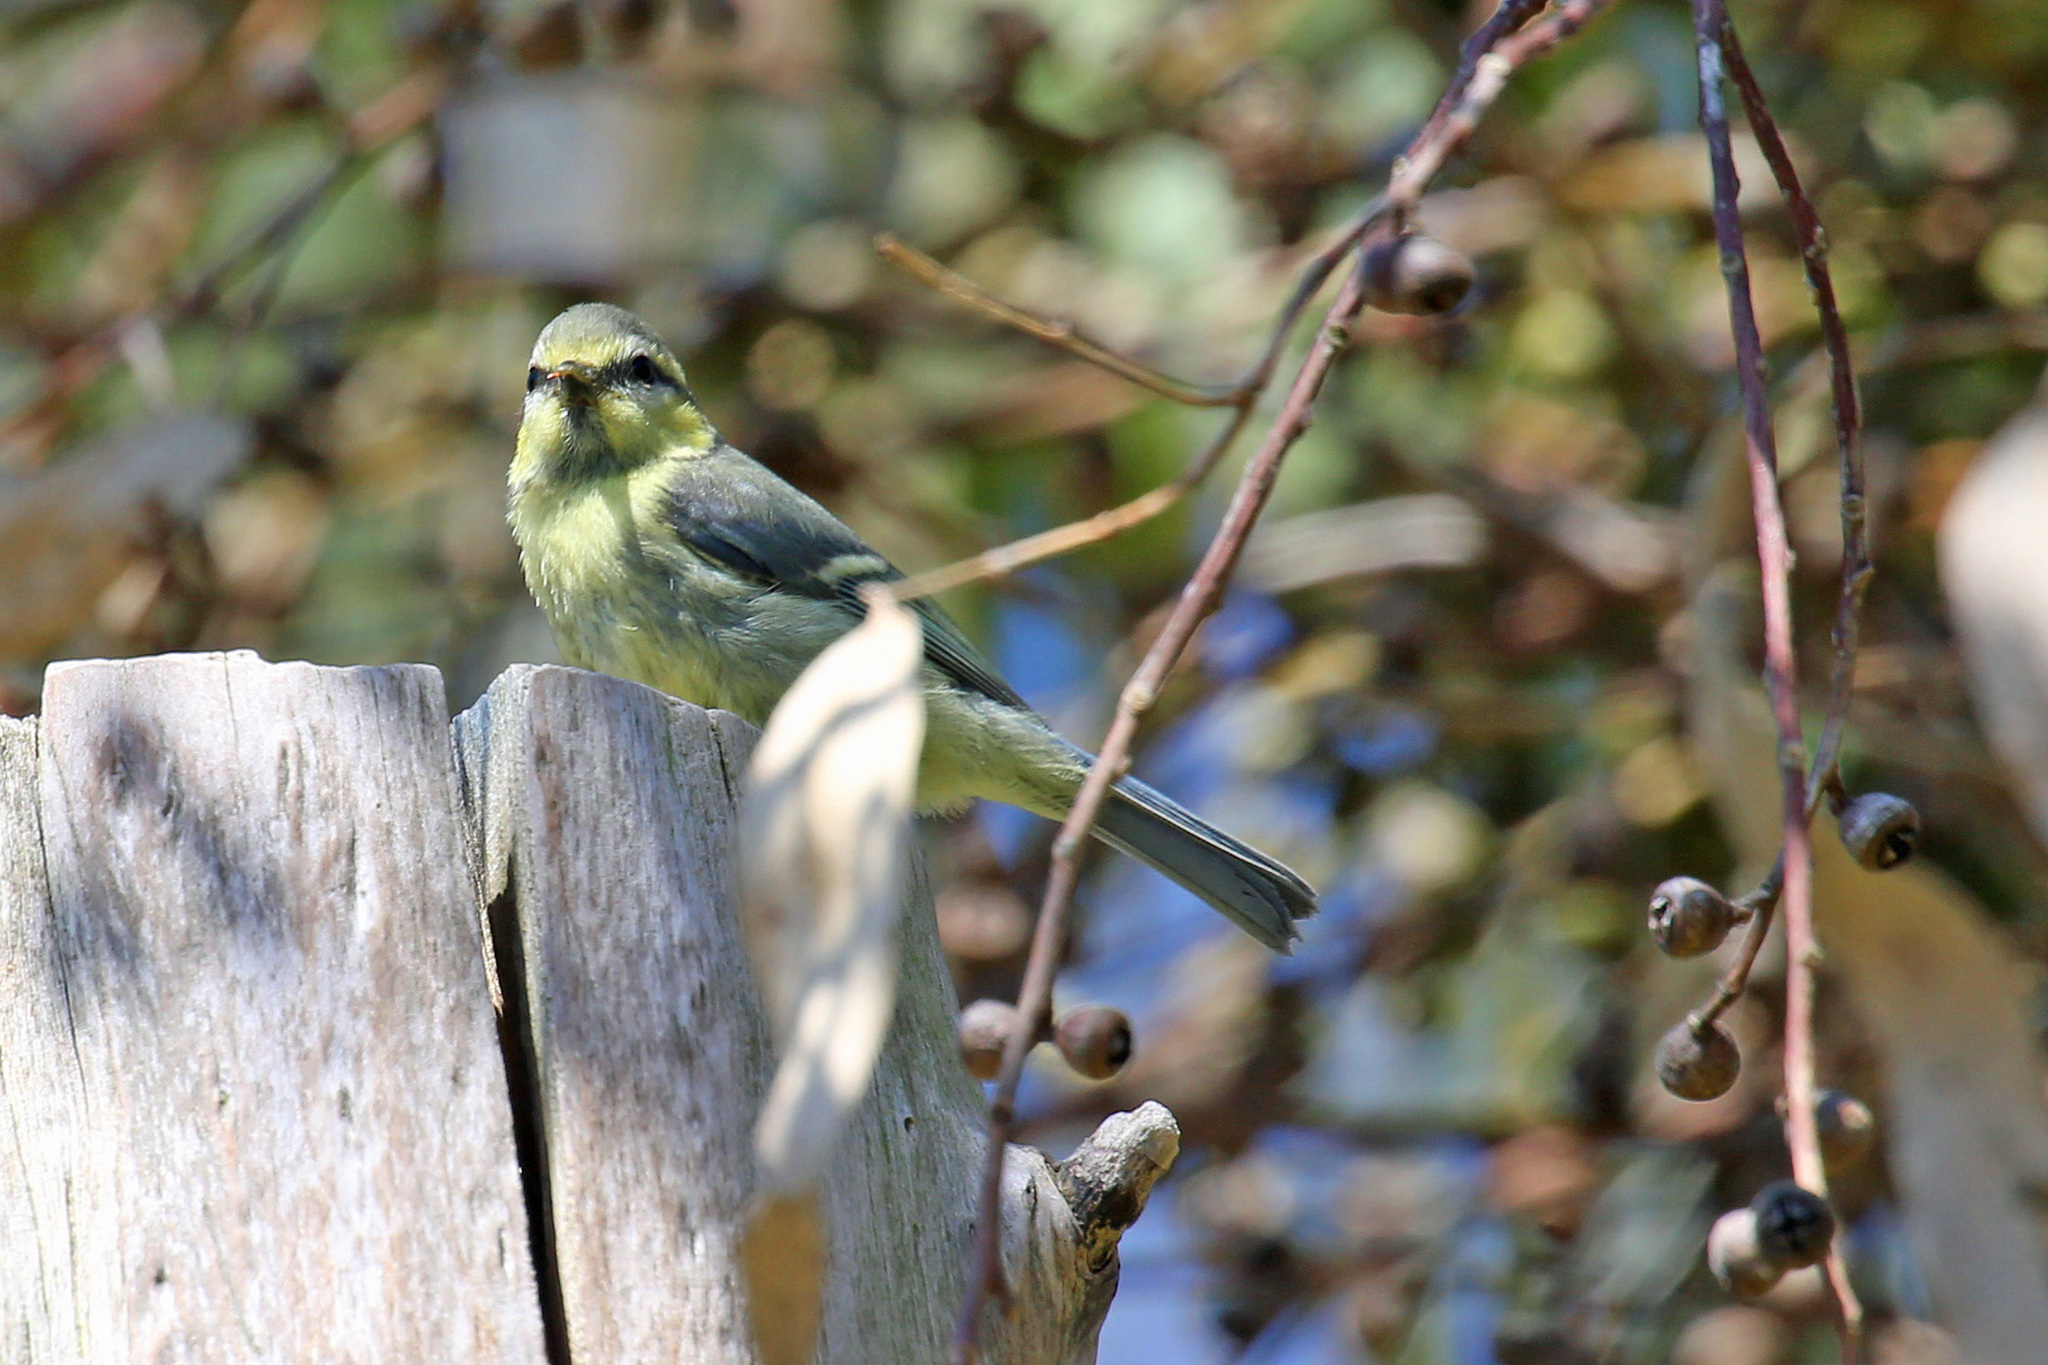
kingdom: Animalia
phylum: Chordata
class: Aves
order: Passeriformes
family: Paridae
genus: Cyanistes
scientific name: Cyanistes caeruleus
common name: Eurasian blue tit
